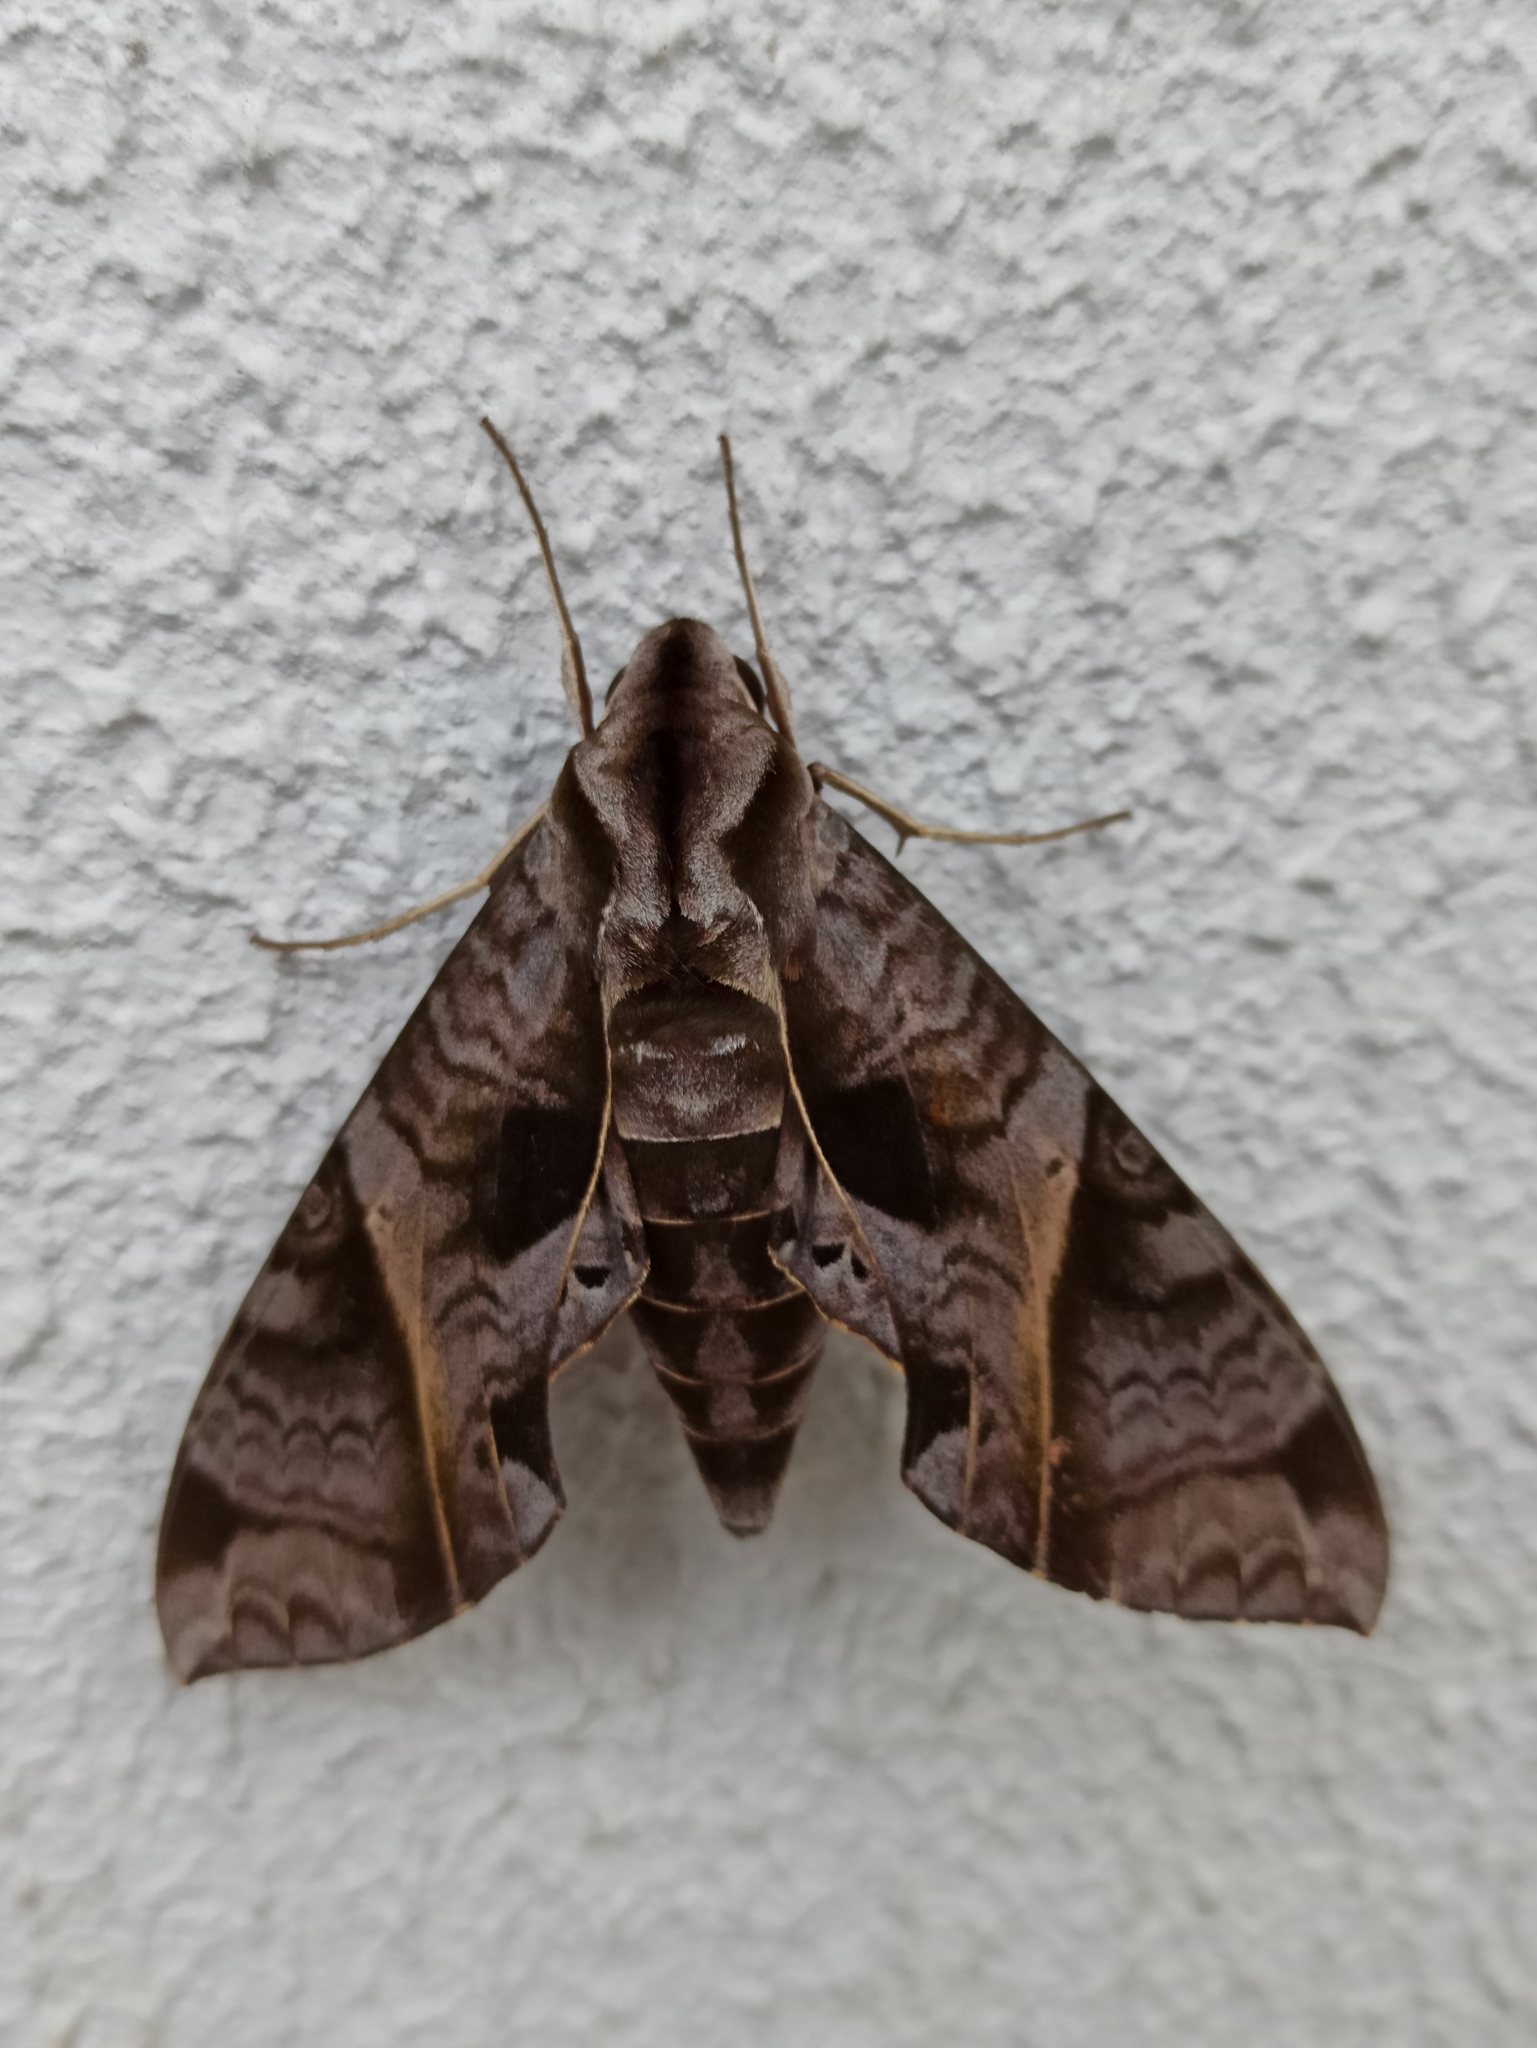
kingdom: Animalia
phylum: Arthropoda
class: Insecta
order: Lepidoptera
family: Sphingidae
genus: Eumorpha
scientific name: Eumorpha anchemolus
